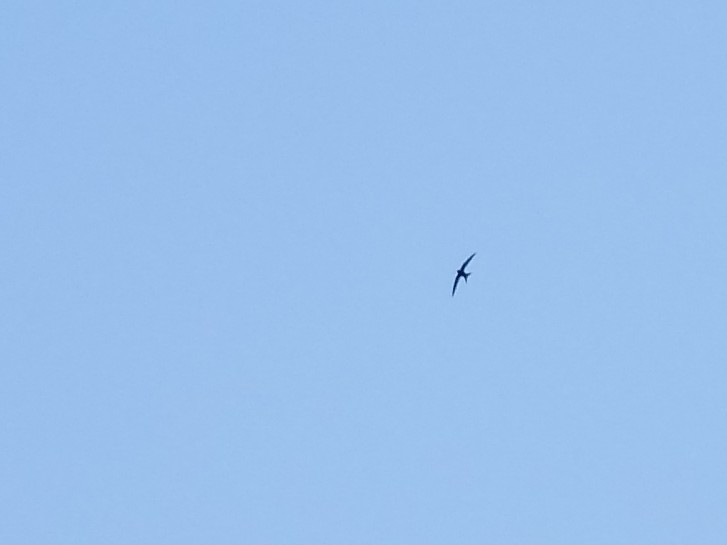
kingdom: Animalia
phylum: Chordata
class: Aves
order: Apodiformes
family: Apodidae
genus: Apus
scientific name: Apus apus
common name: Common swift
